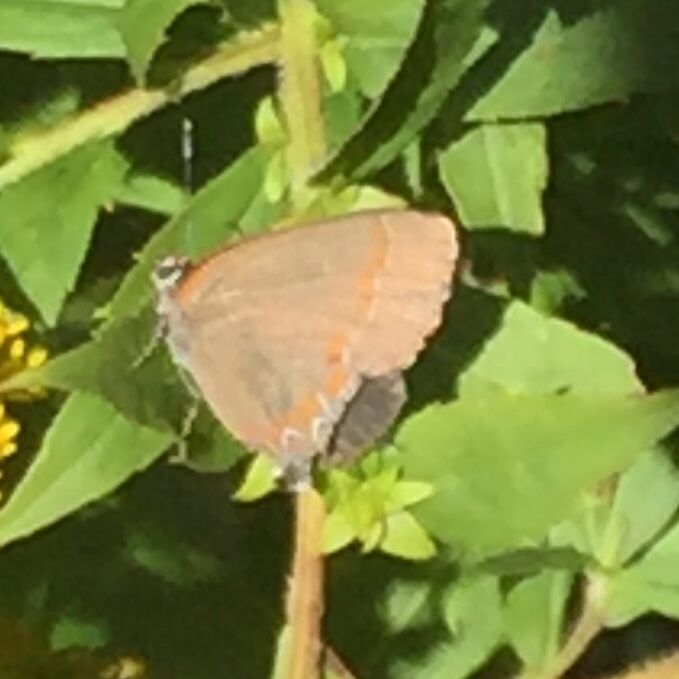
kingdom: Animalia
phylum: Arthropoda
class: Insecta
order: Lepidoptera
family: Lycaenidae
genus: Calycopis
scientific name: Calycopis cecrops
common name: Red-banded hairstreak
